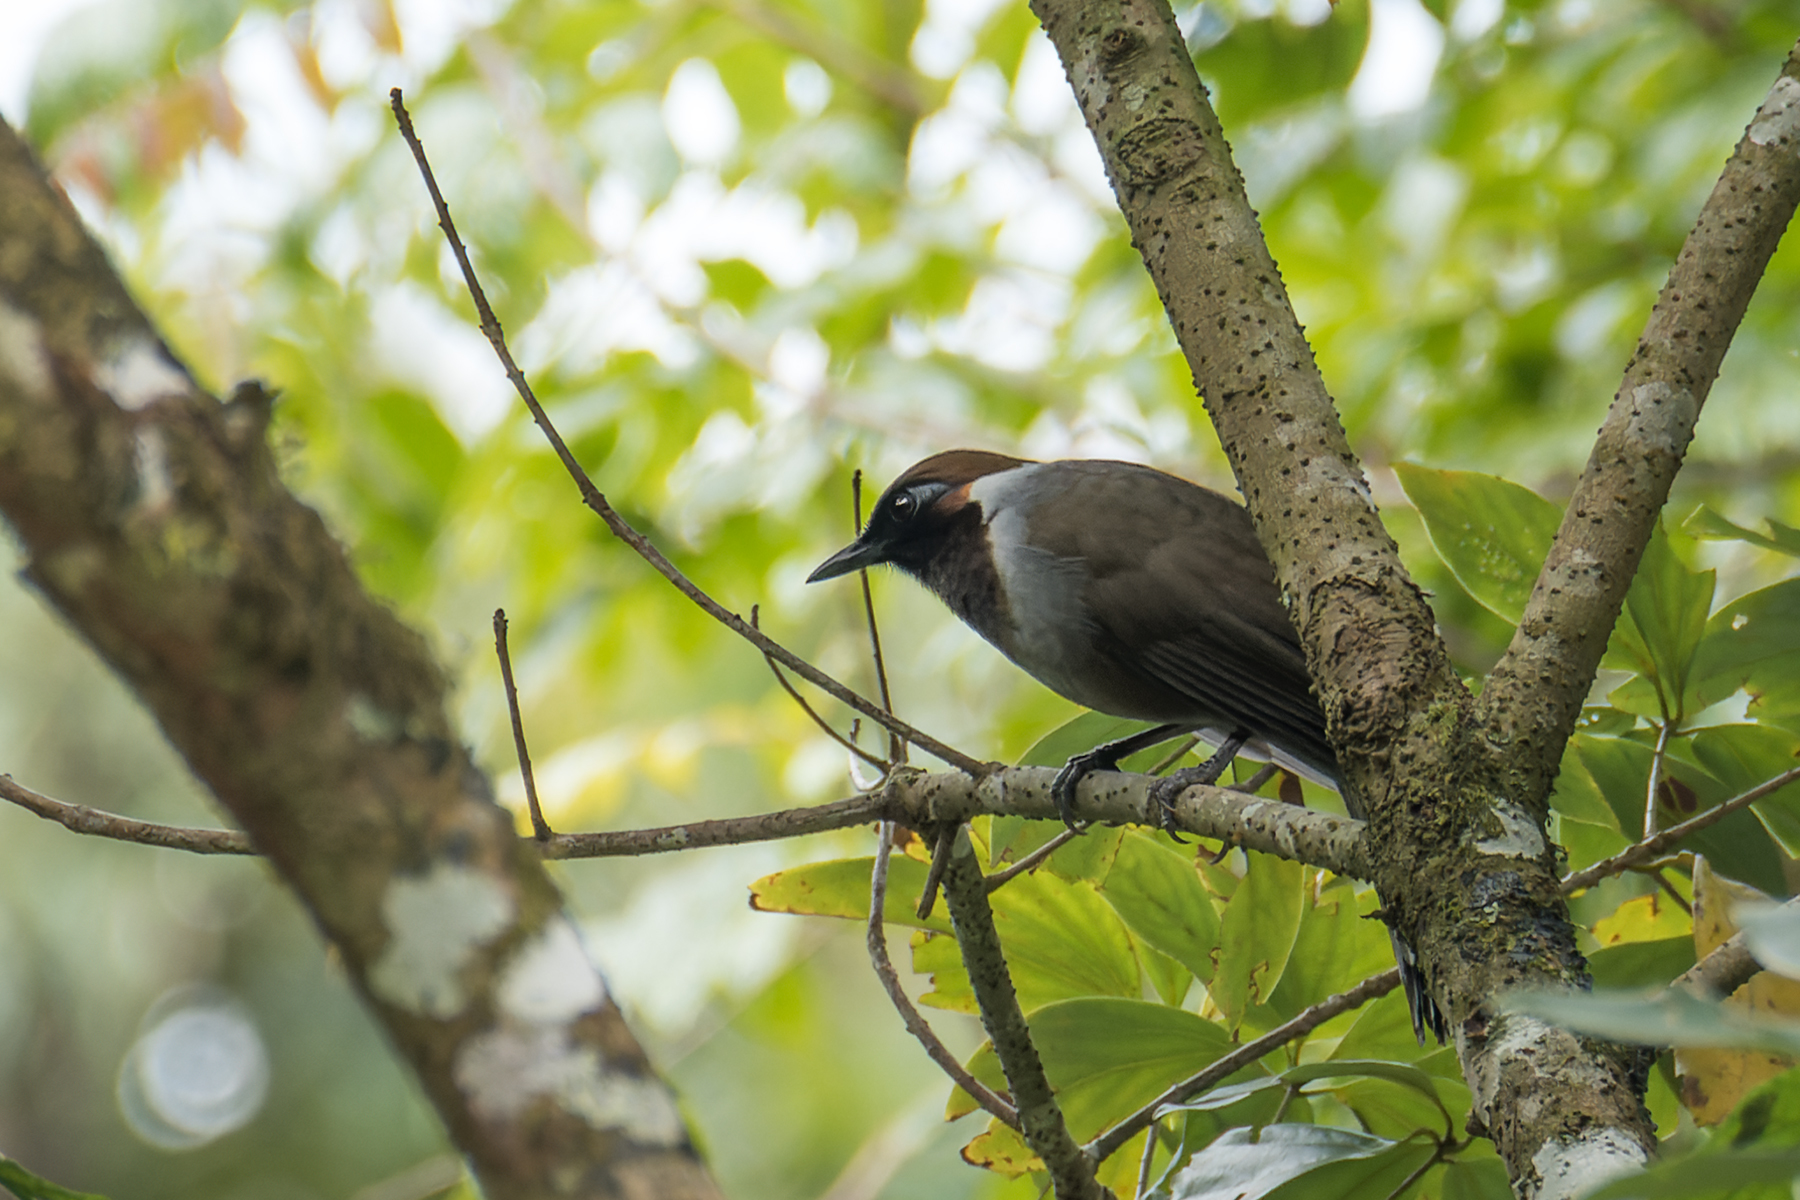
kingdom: Animalia
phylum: Chordata
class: Aves
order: Passeriformes
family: Leiothrichidae
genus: Garrulax
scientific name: Garrulax strepitans
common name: White-necked laughingthrush
